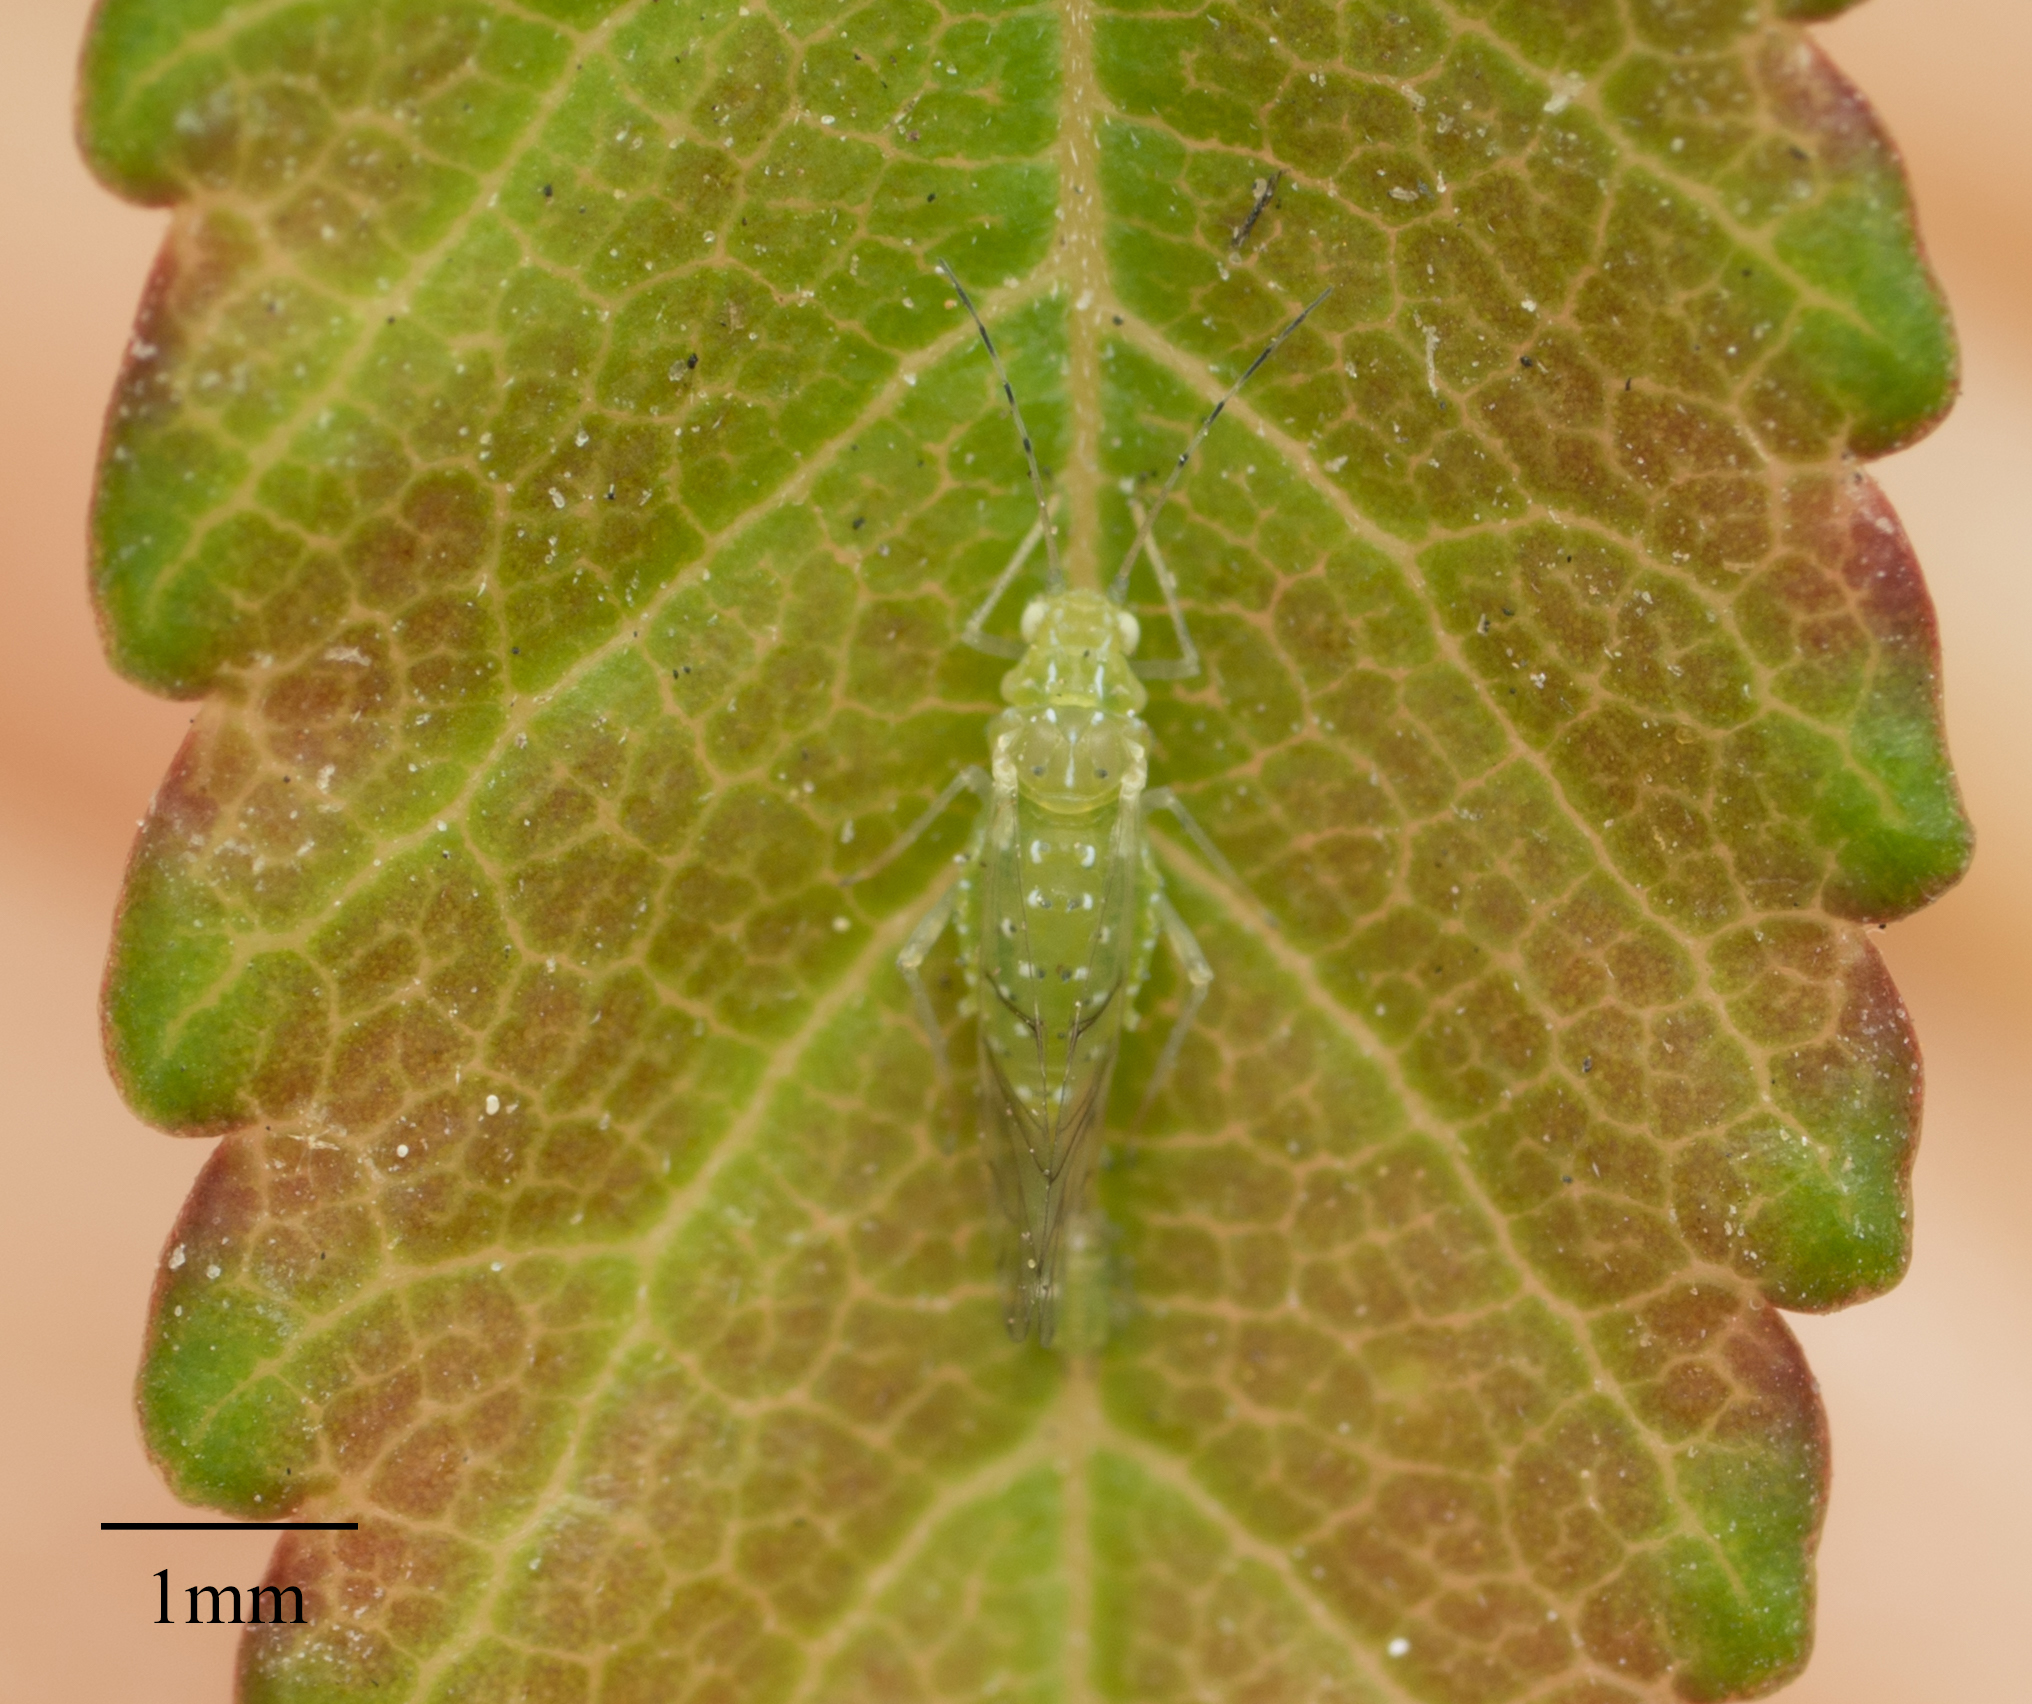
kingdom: Animalia
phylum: Arthropoda
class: Insecta
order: Hemiptera
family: Aphididae
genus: Tinocallis
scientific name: Tinocallis ulmiparvifoliae
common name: Aphid
